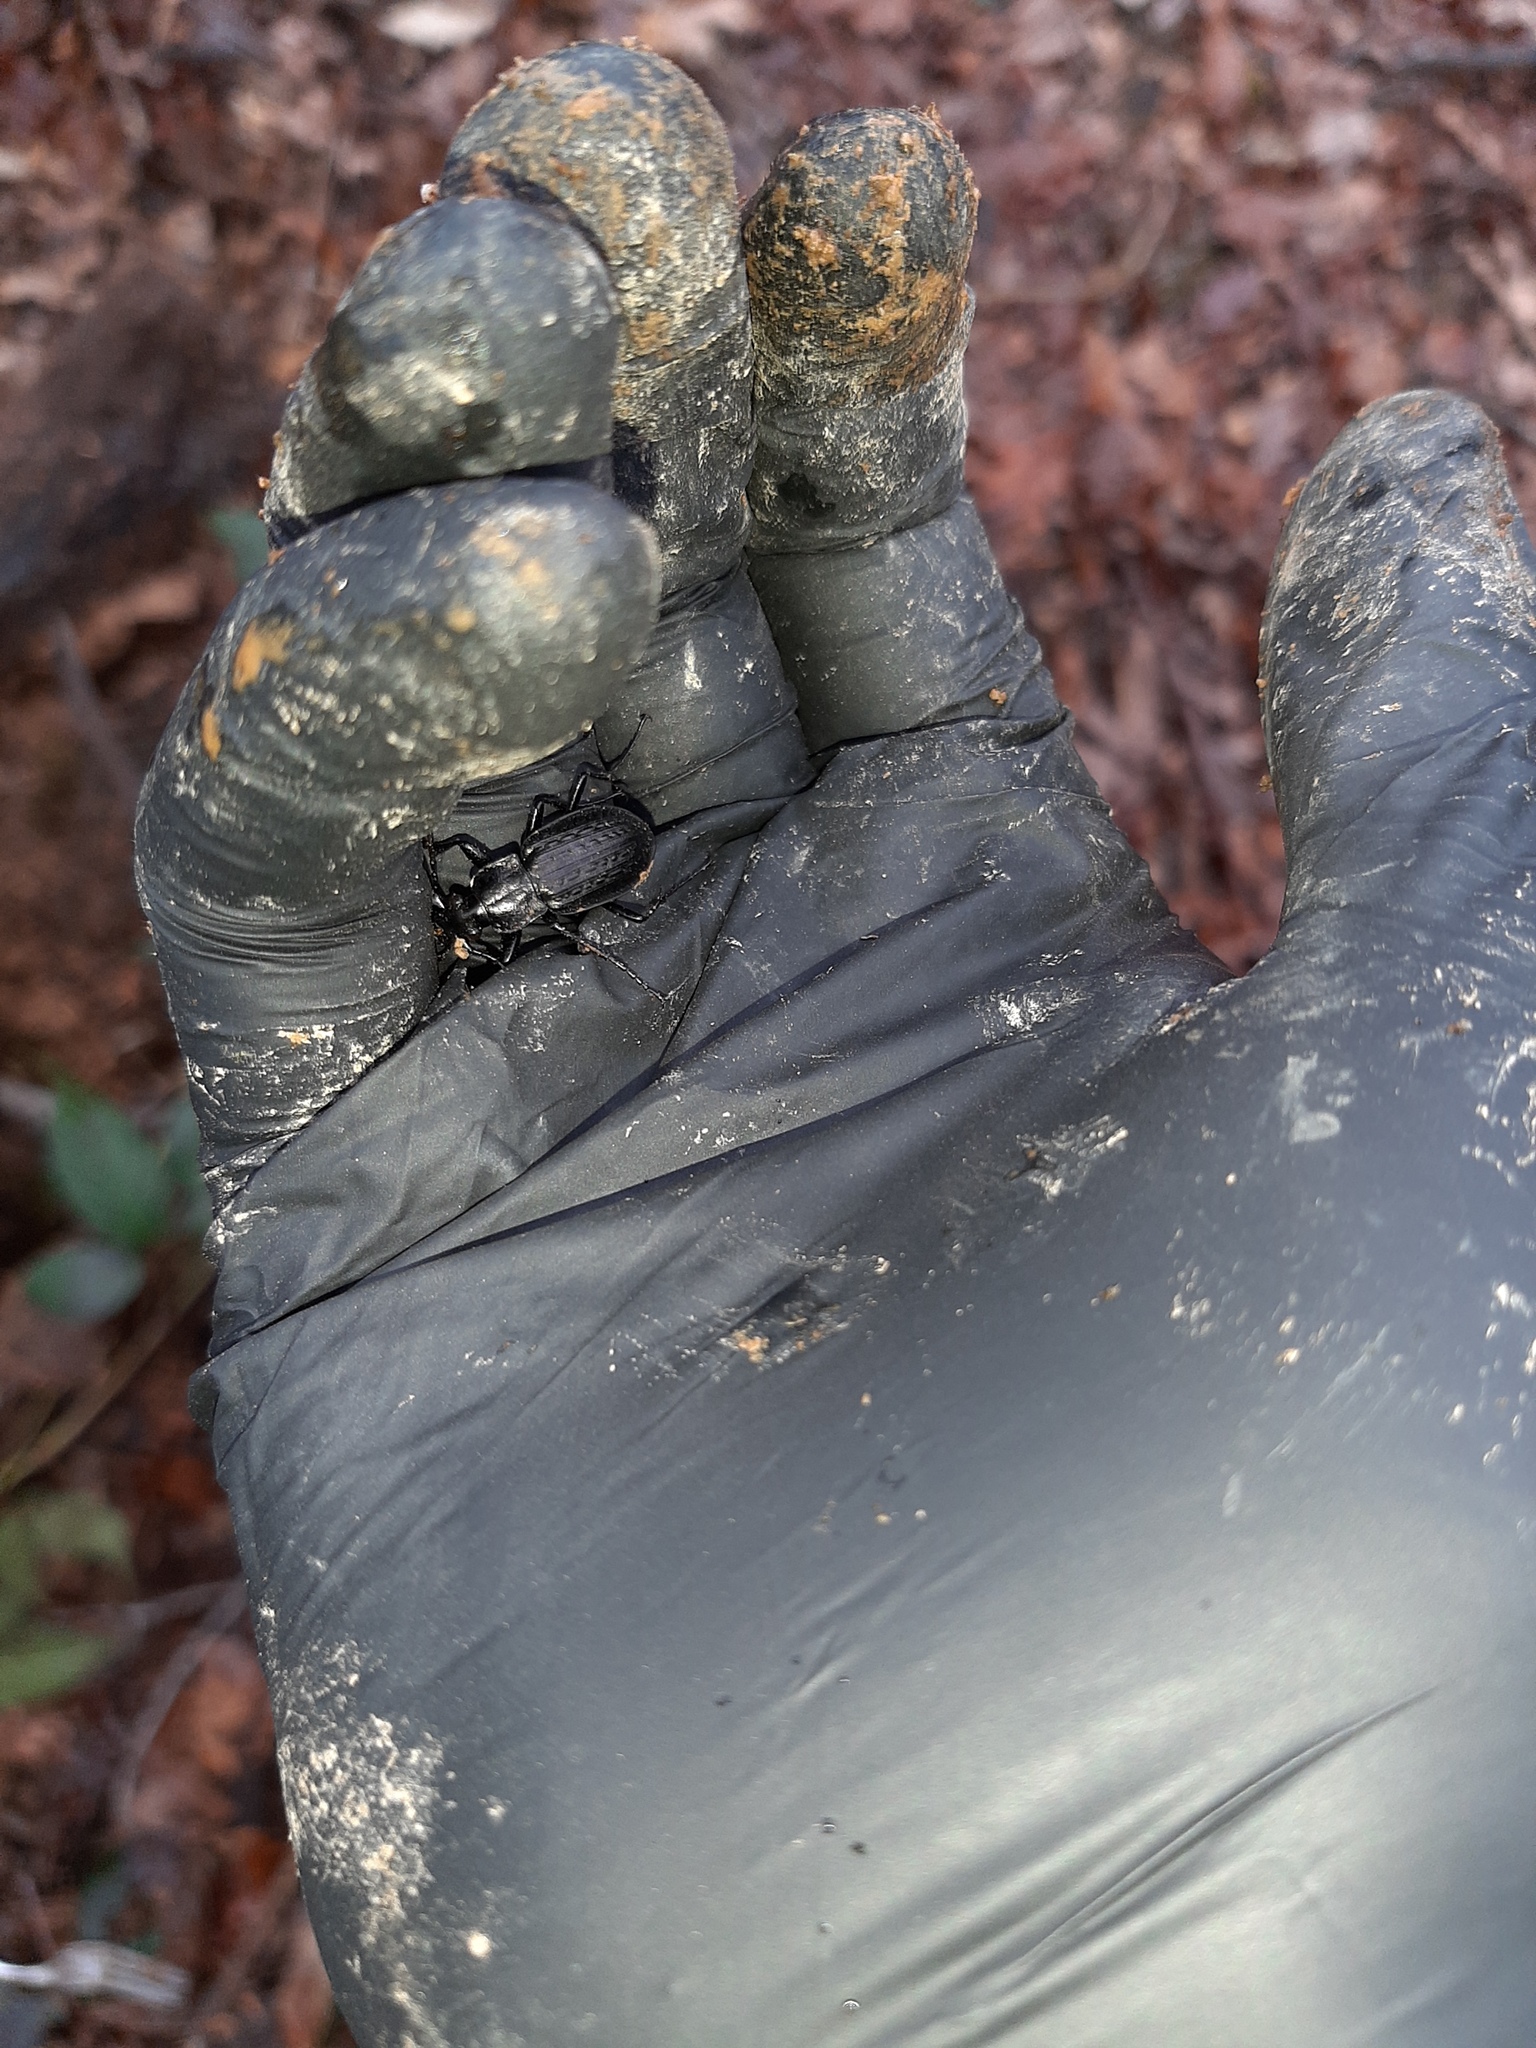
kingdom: Animalia
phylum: Arthropoda
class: Insecta
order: Coleoptera
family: Carabidae
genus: Carabus
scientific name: Carabus granulatus
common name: Granulate ground beetle
